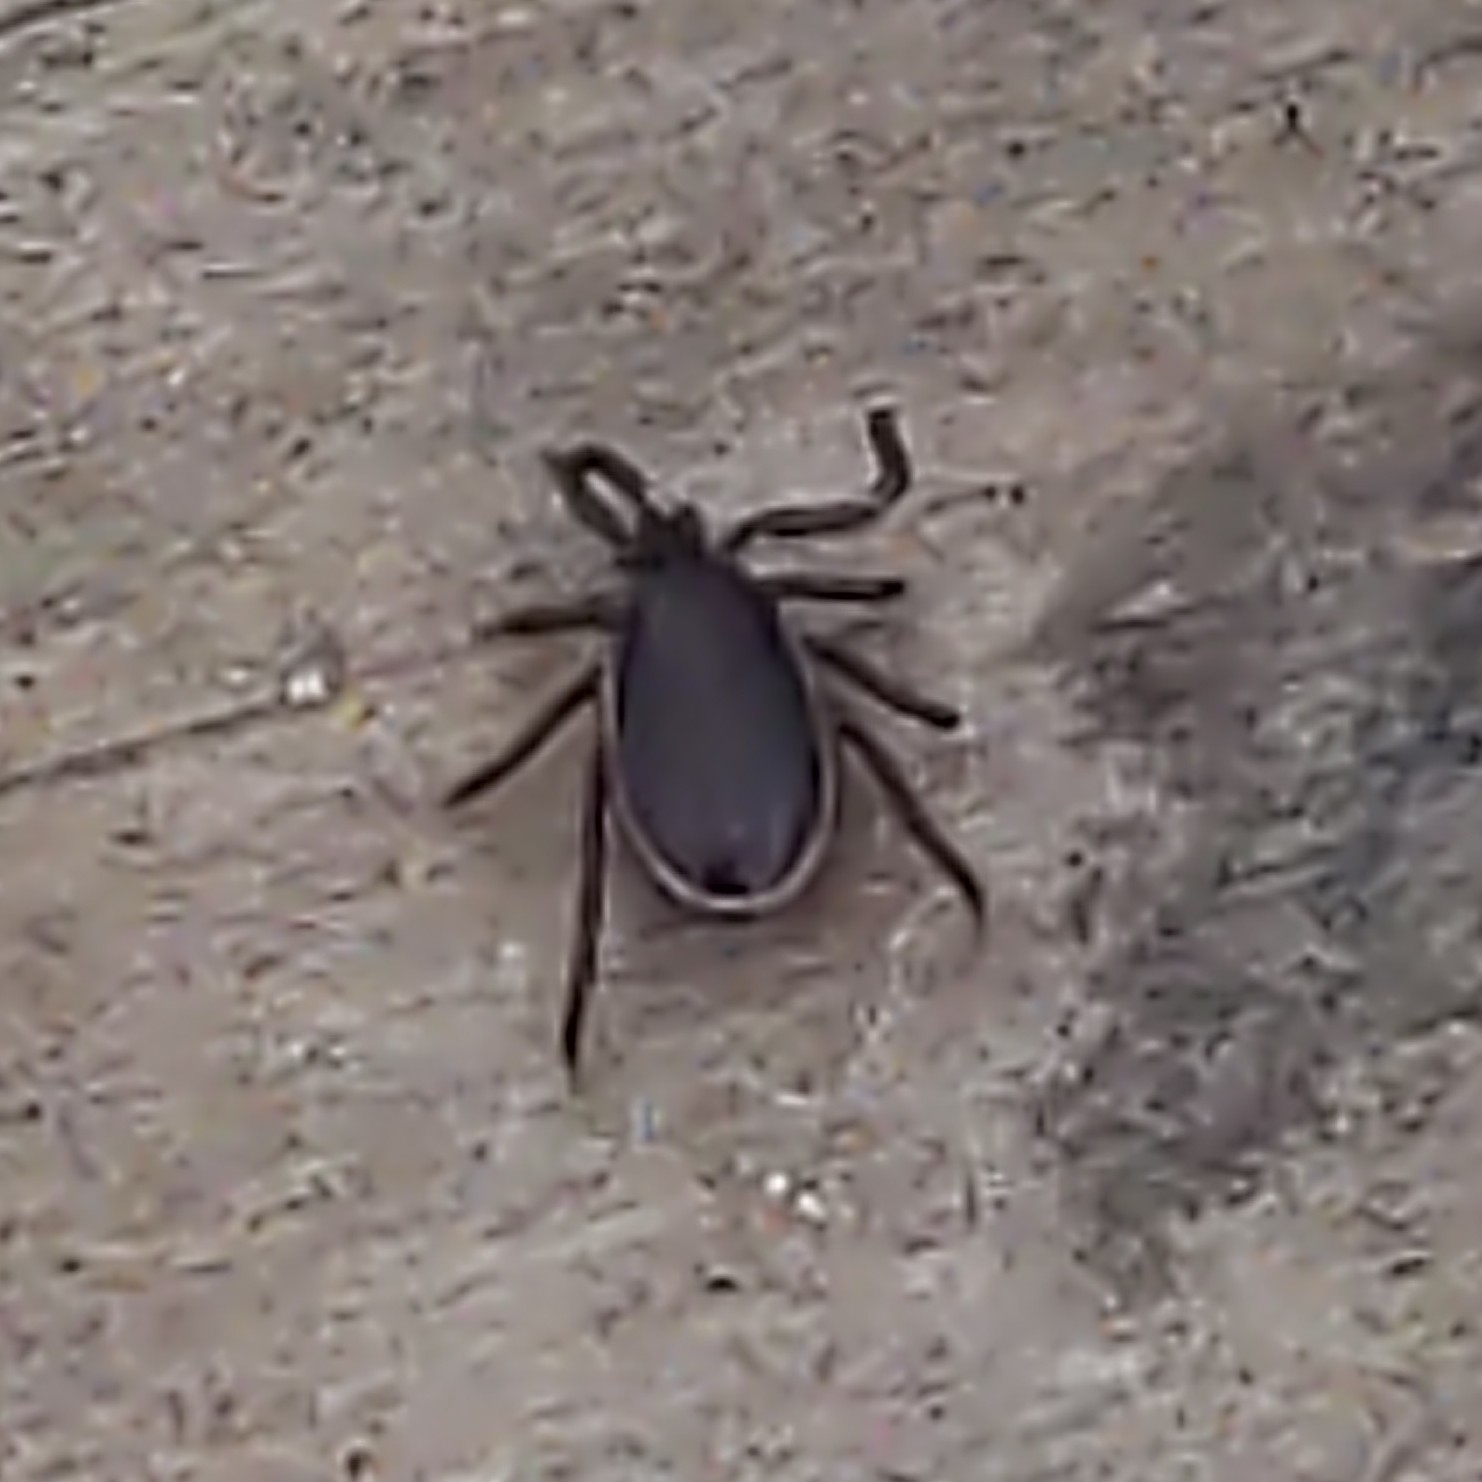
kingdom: Animalia
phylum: Arthropoda
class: Arachnida
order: Ixodida
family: Ixodidae
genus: Ixodes
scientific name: Ixodes scapularis
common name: Black legged tick
